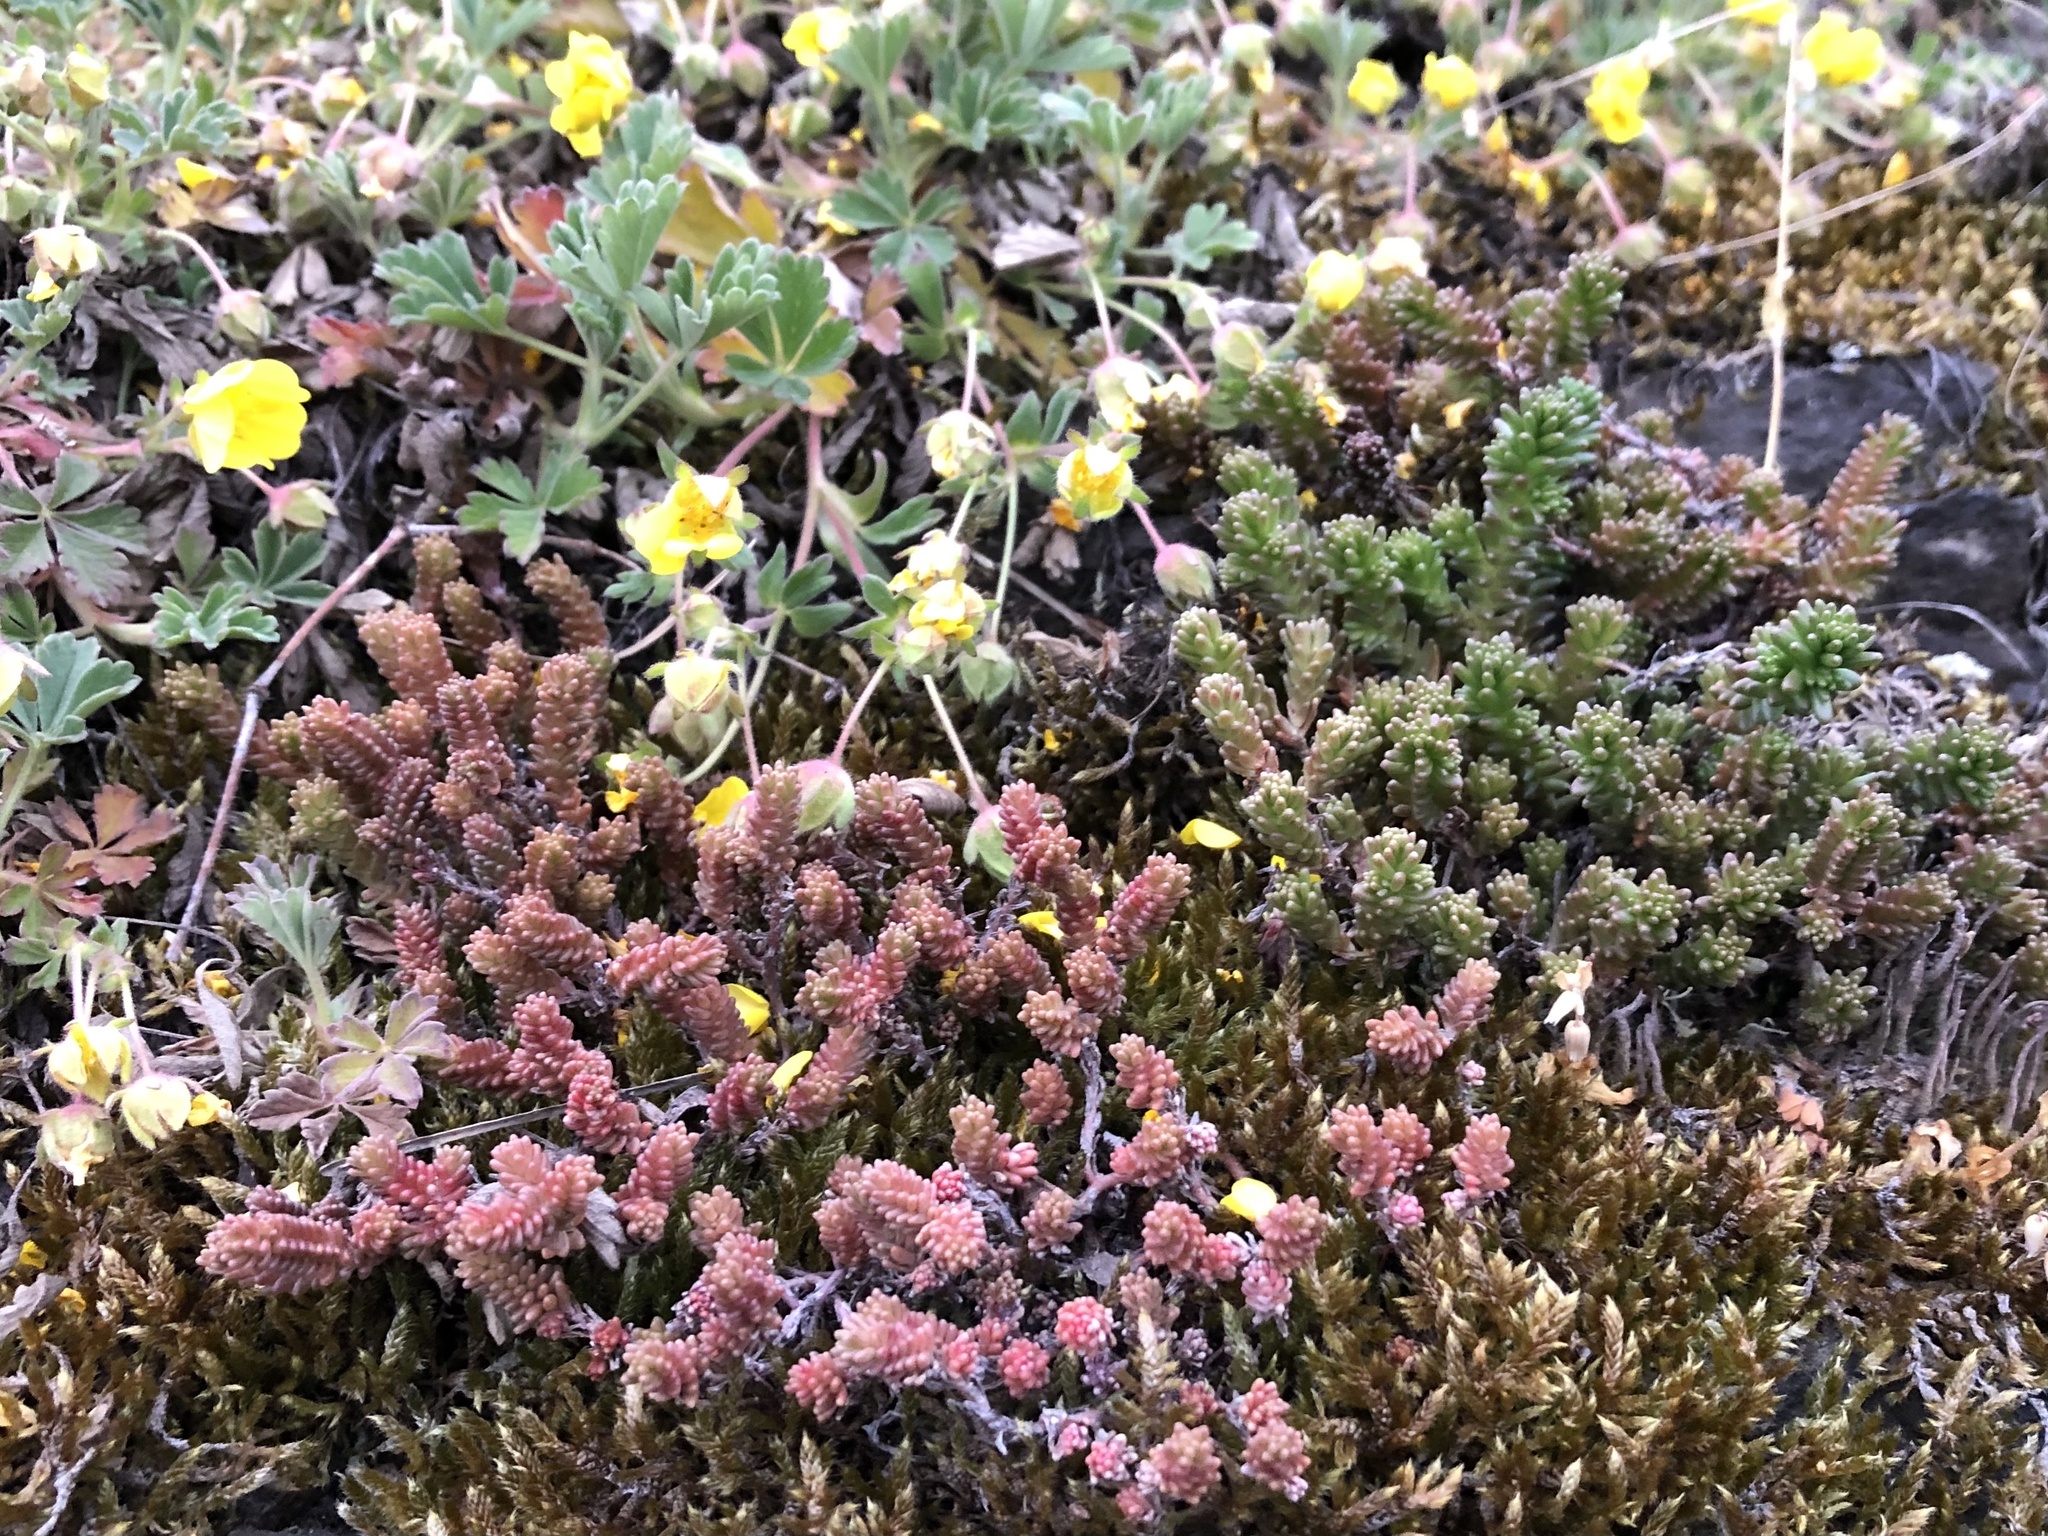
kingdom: Plantae
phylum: Tracheophyta
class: Magnoliopsida
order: Saxifragales
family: Crassulaceae
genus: Sedum
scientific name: Sedum sexangulare
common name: Tasteless stonecrop
